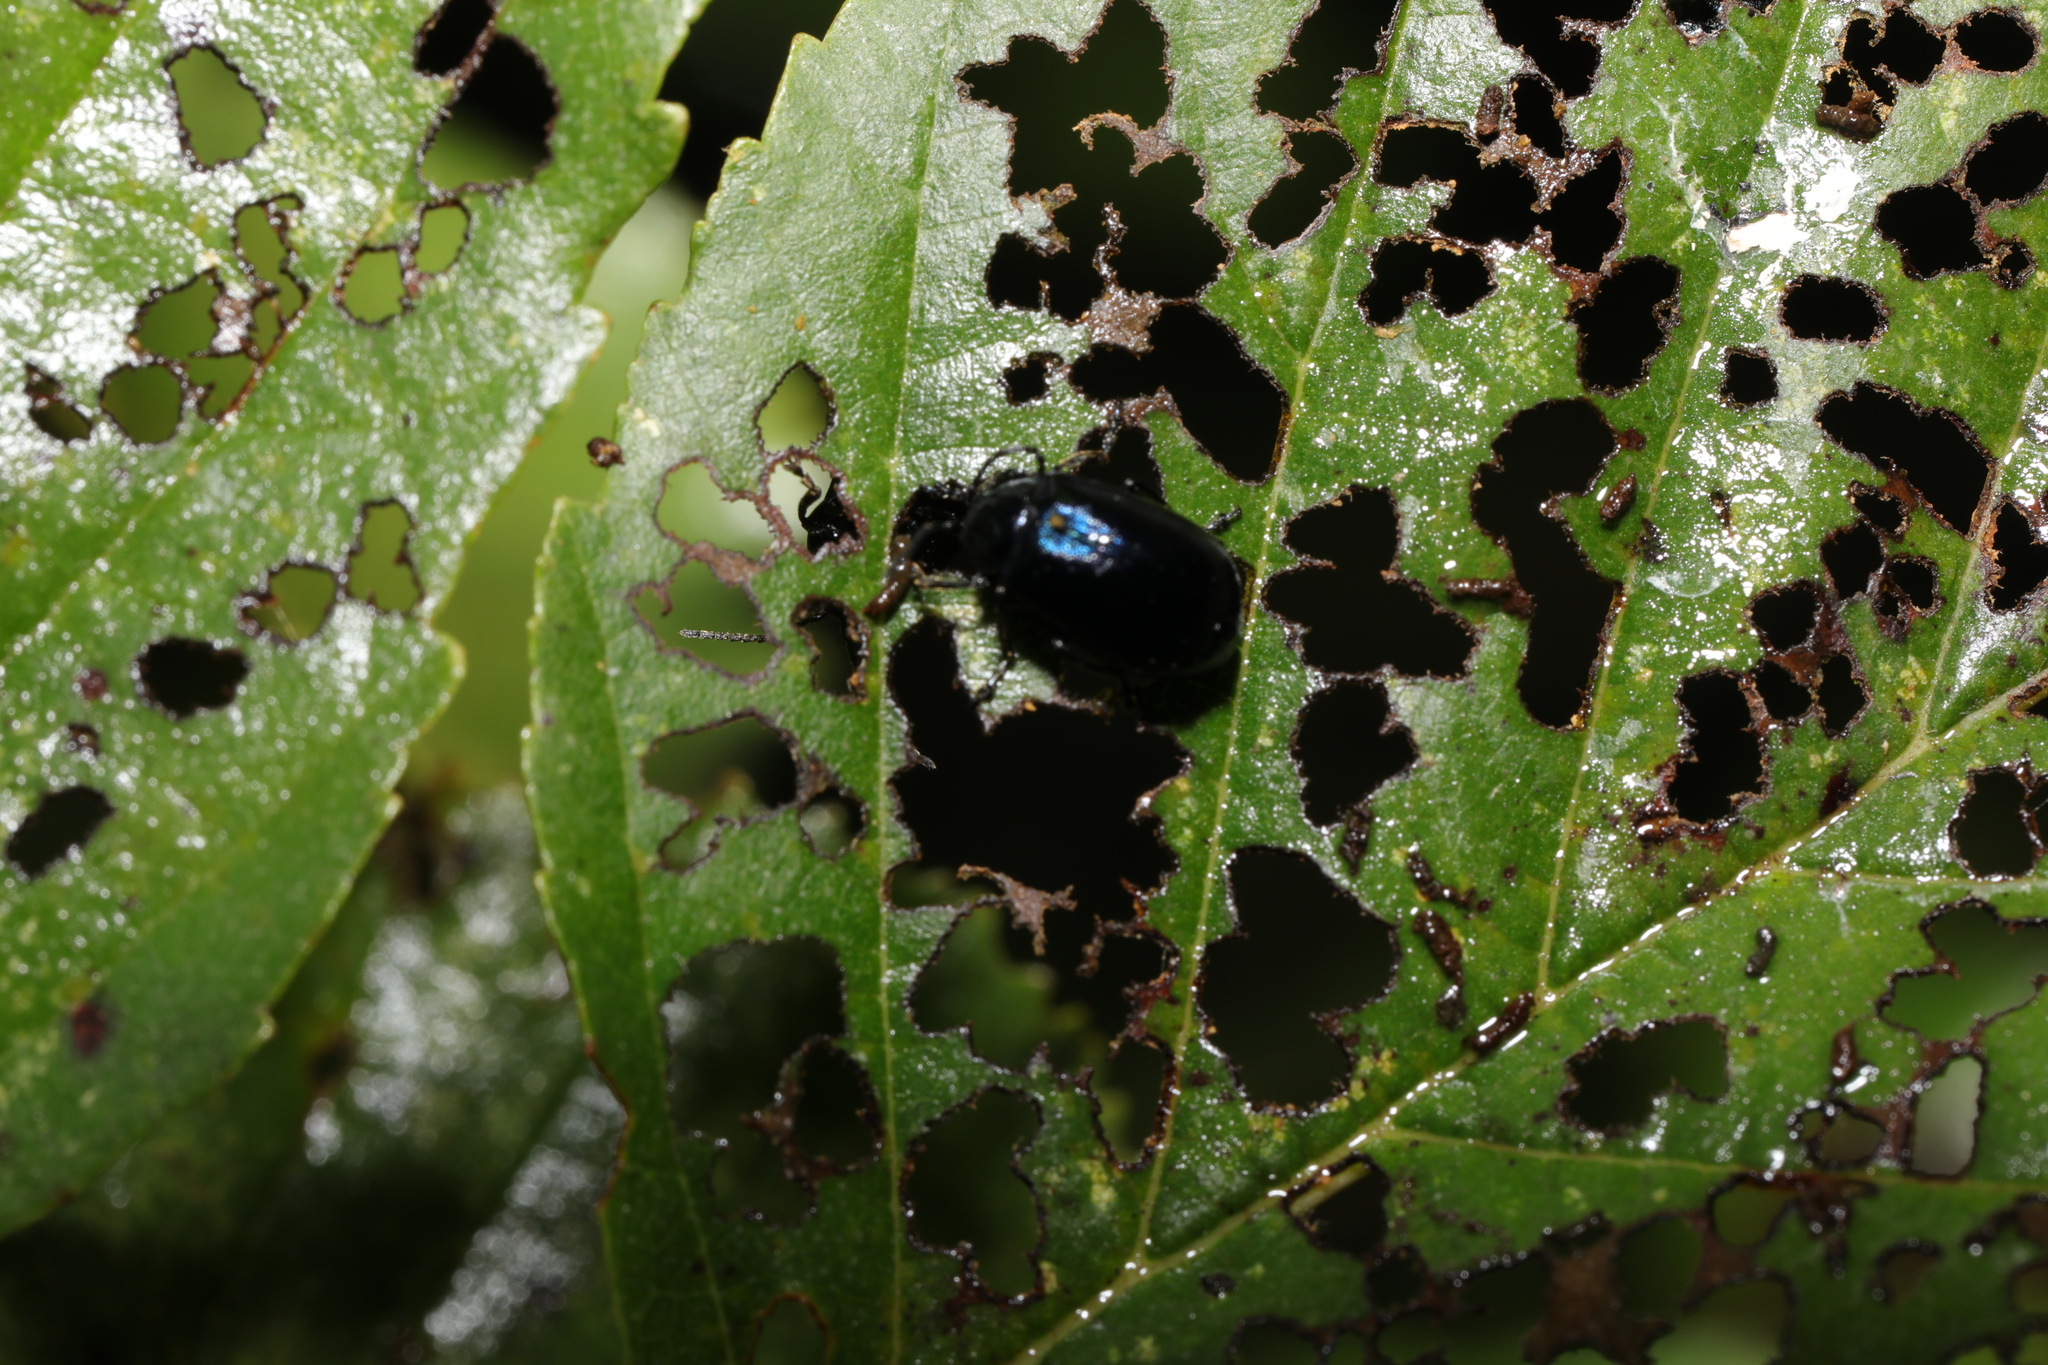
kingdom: Animalia
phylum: Arthropoda
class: Insecta
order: Coleoptera
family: Chrysomelidae
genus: Agelastica
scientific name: Agelastica alni
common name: Alder leaf beetle
